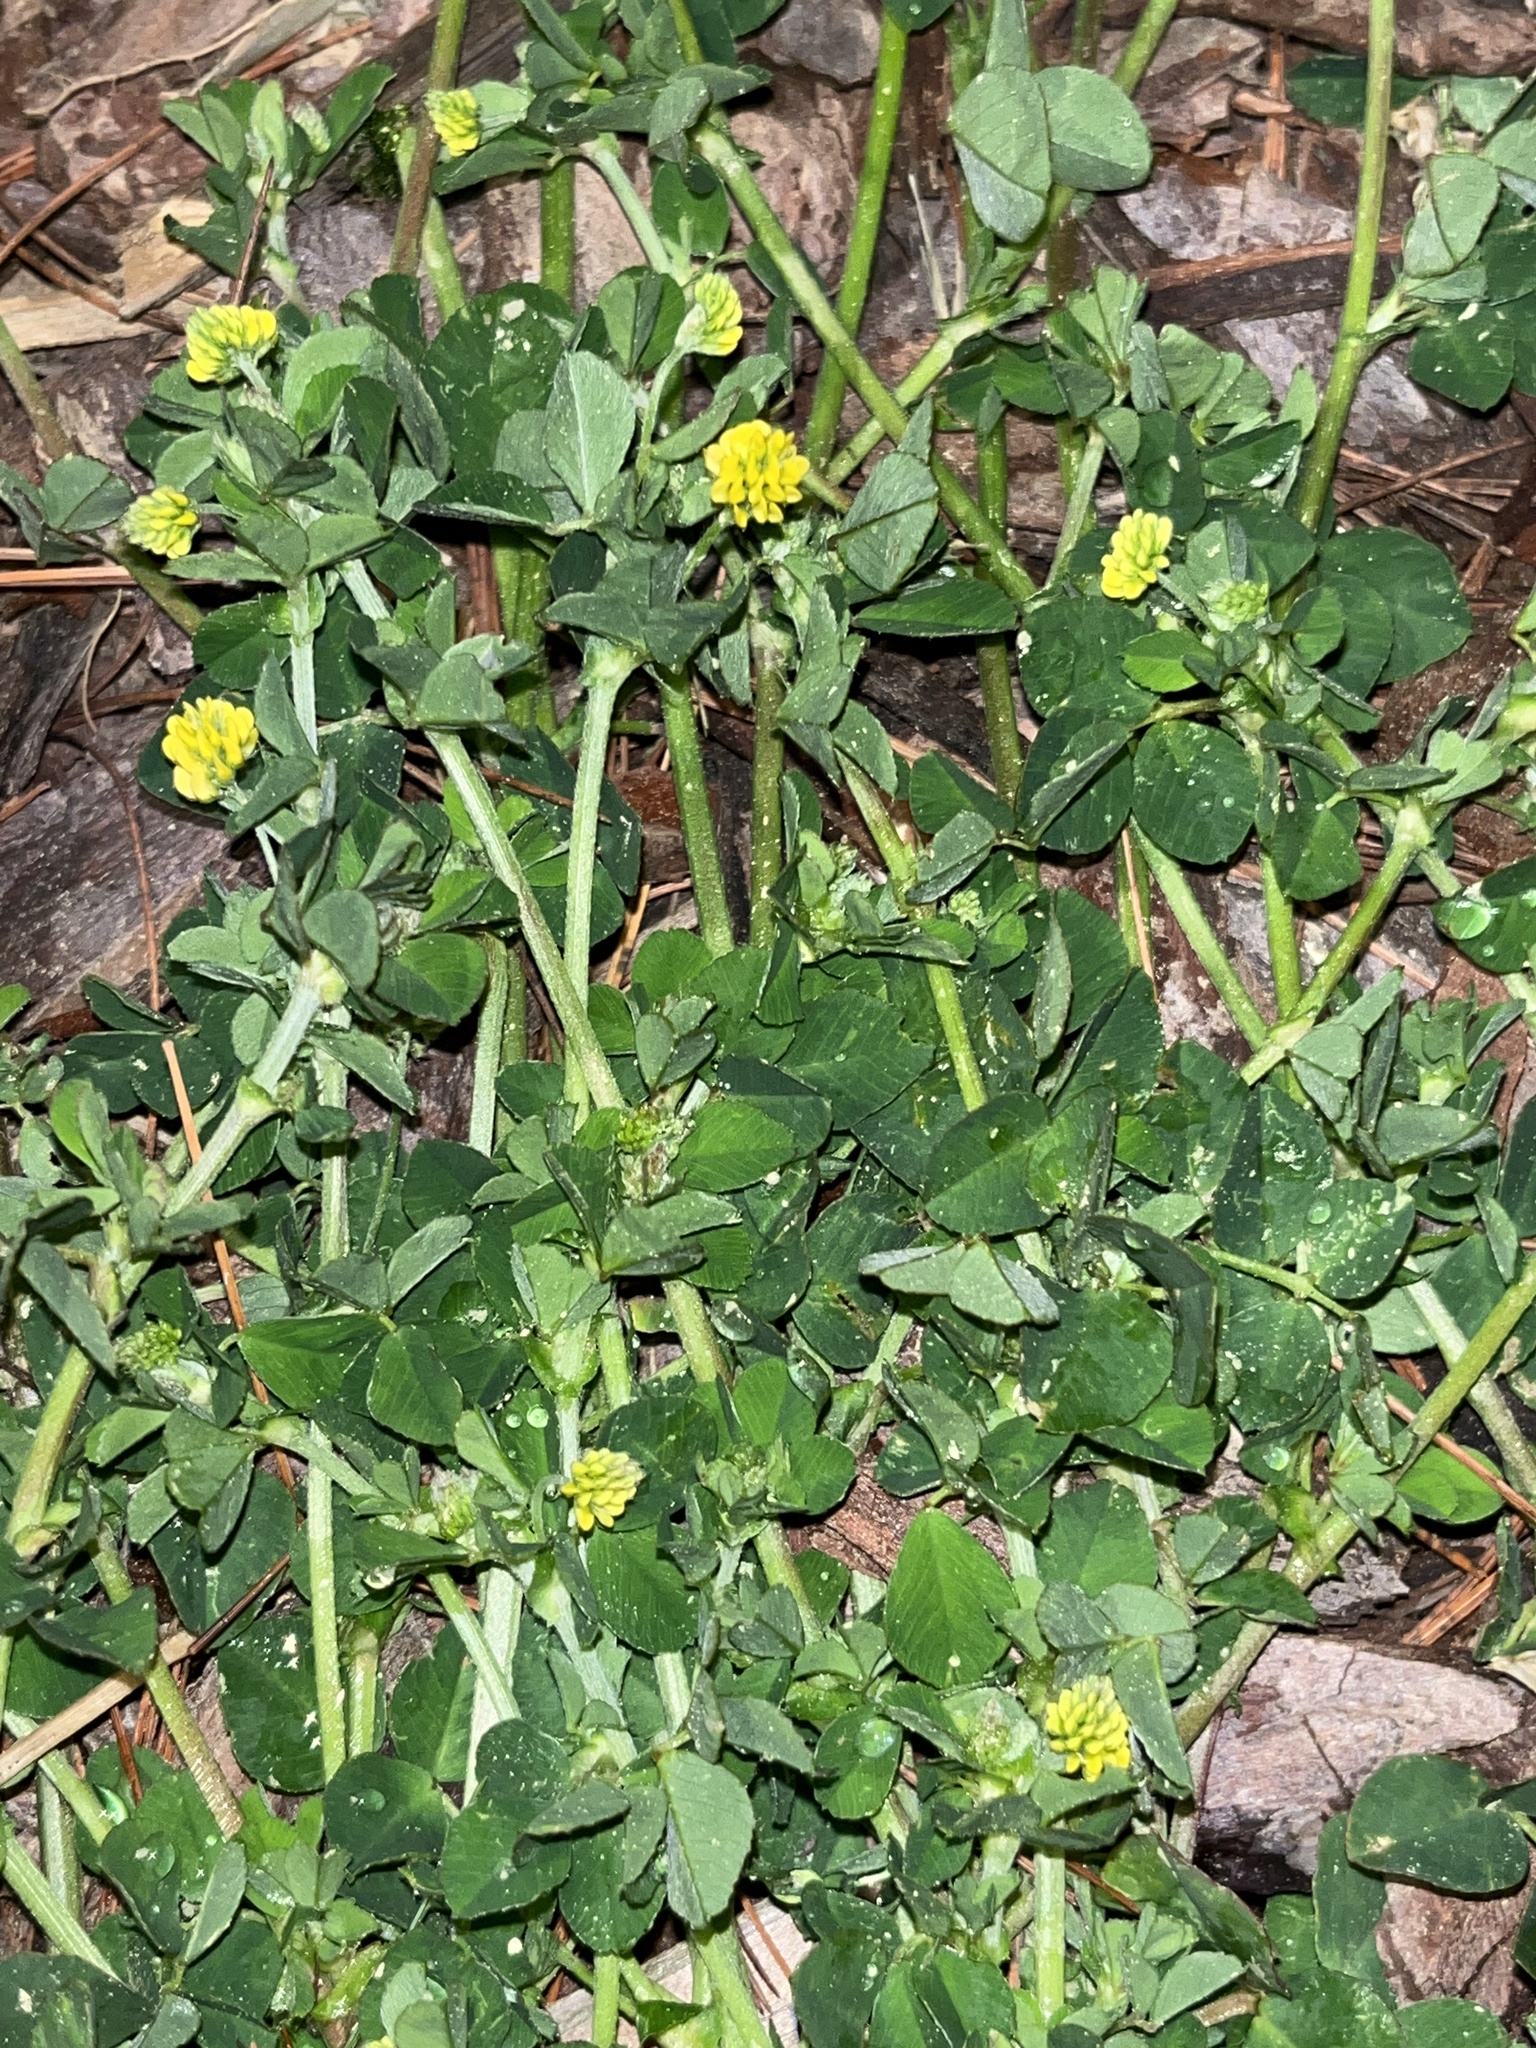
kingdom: Plantae
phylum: Tracheophyta
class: Magnoliopsida
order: Fabales
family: Fabaceae
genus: Medicago
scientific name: Medicago lupulina
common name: Black medick
